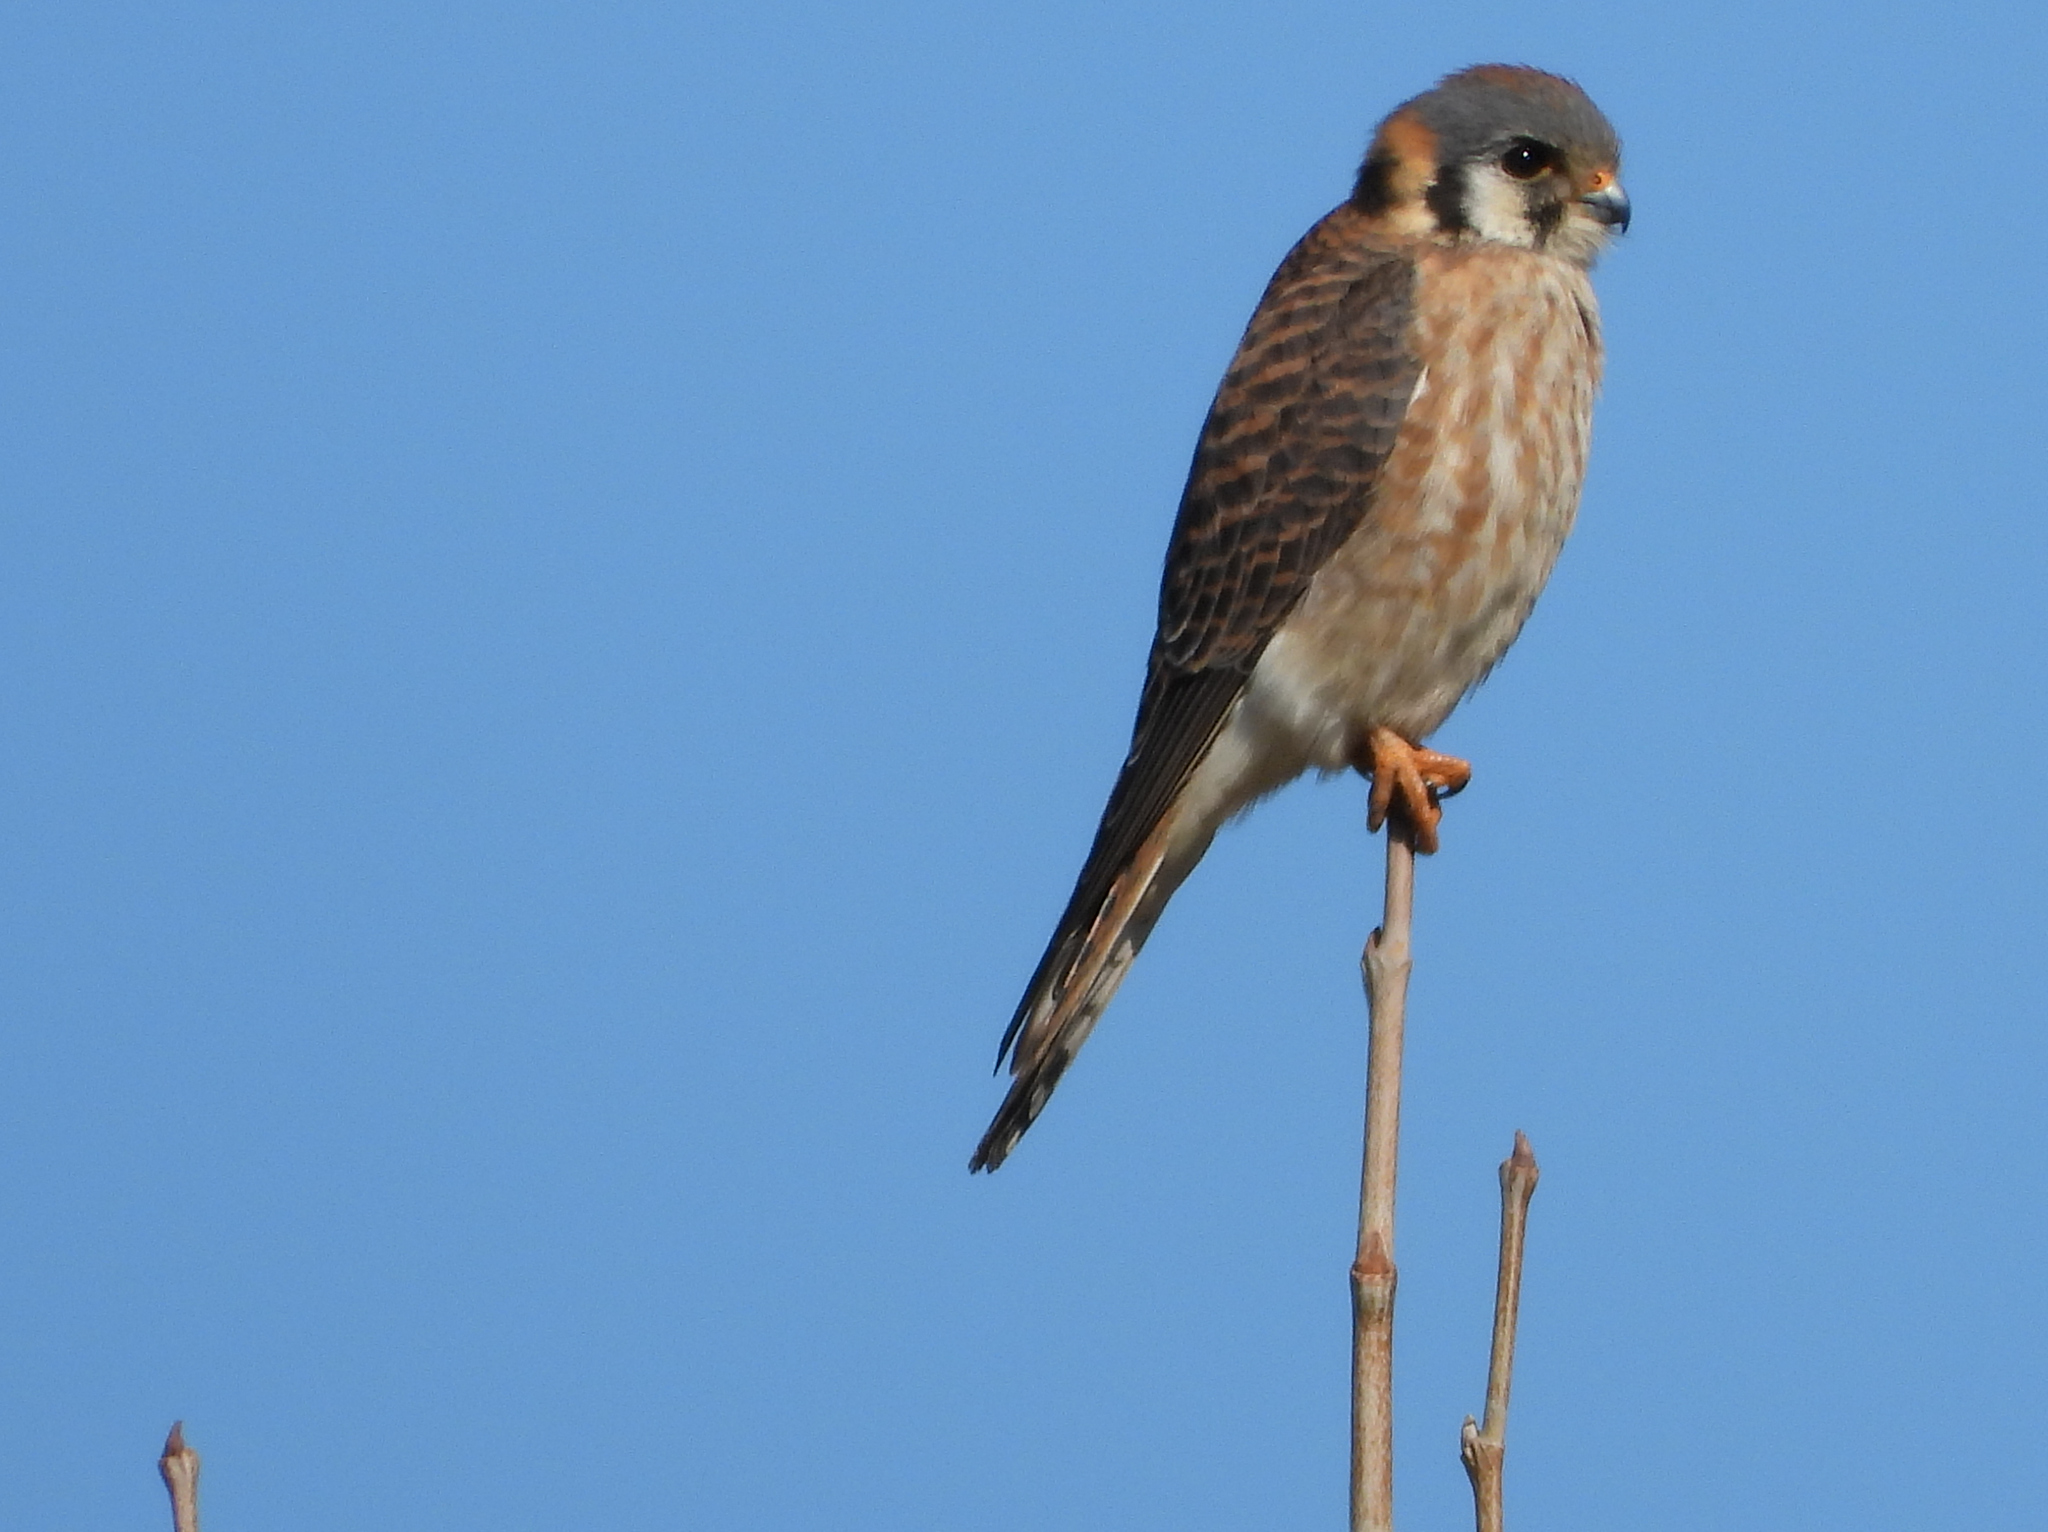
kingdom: Animalia
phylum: Chordata
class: Aves
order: Falconiformes
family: Falconidae
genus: Falco
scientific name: Falco sparverius
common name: American kestrel
